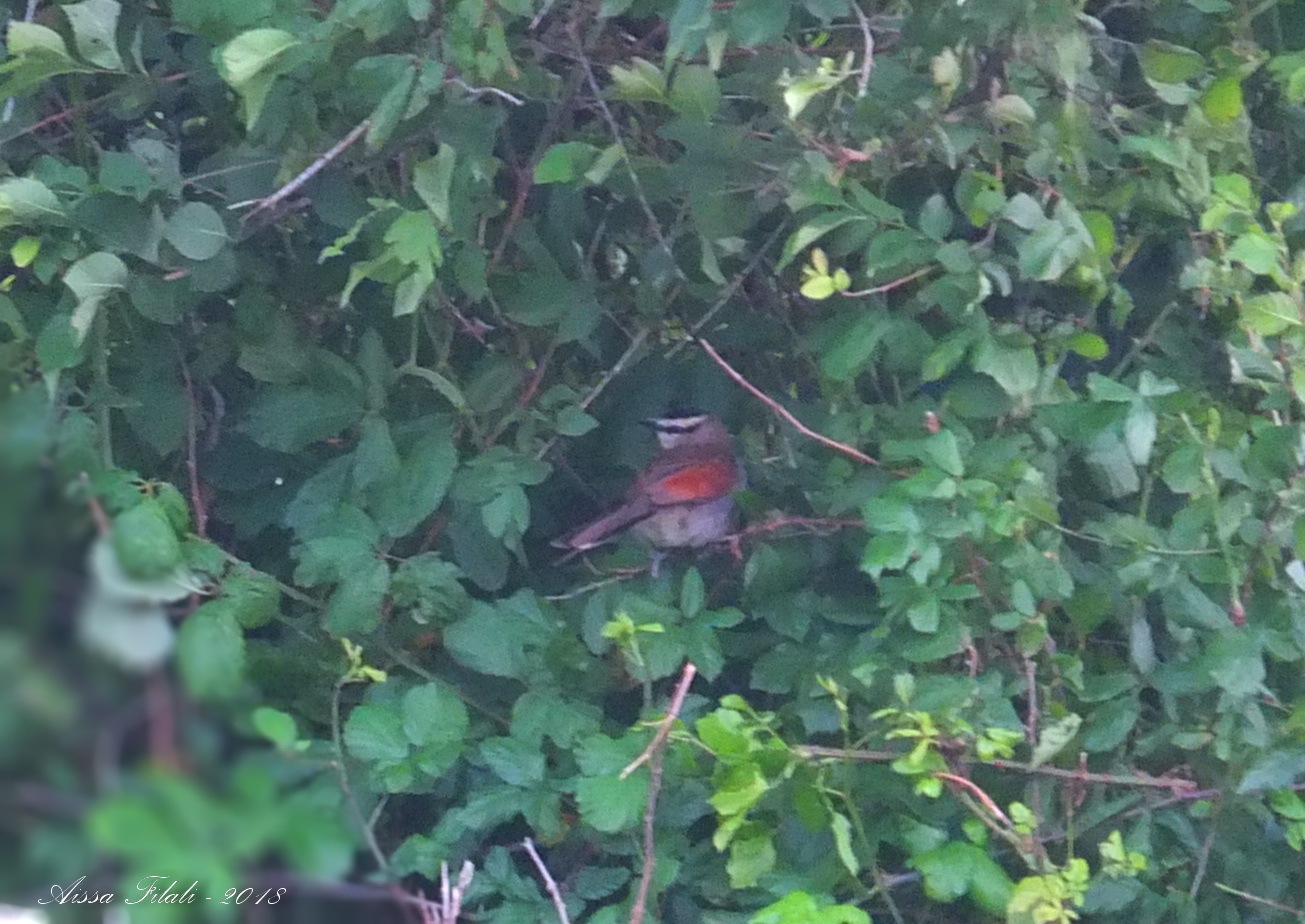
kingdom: Animalia
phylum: Chordata
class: Aves
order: Passeriformes
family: Malaconotidae
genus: Tchagra
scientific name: Tchagra senegalus
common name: Black-crowned tchagra
